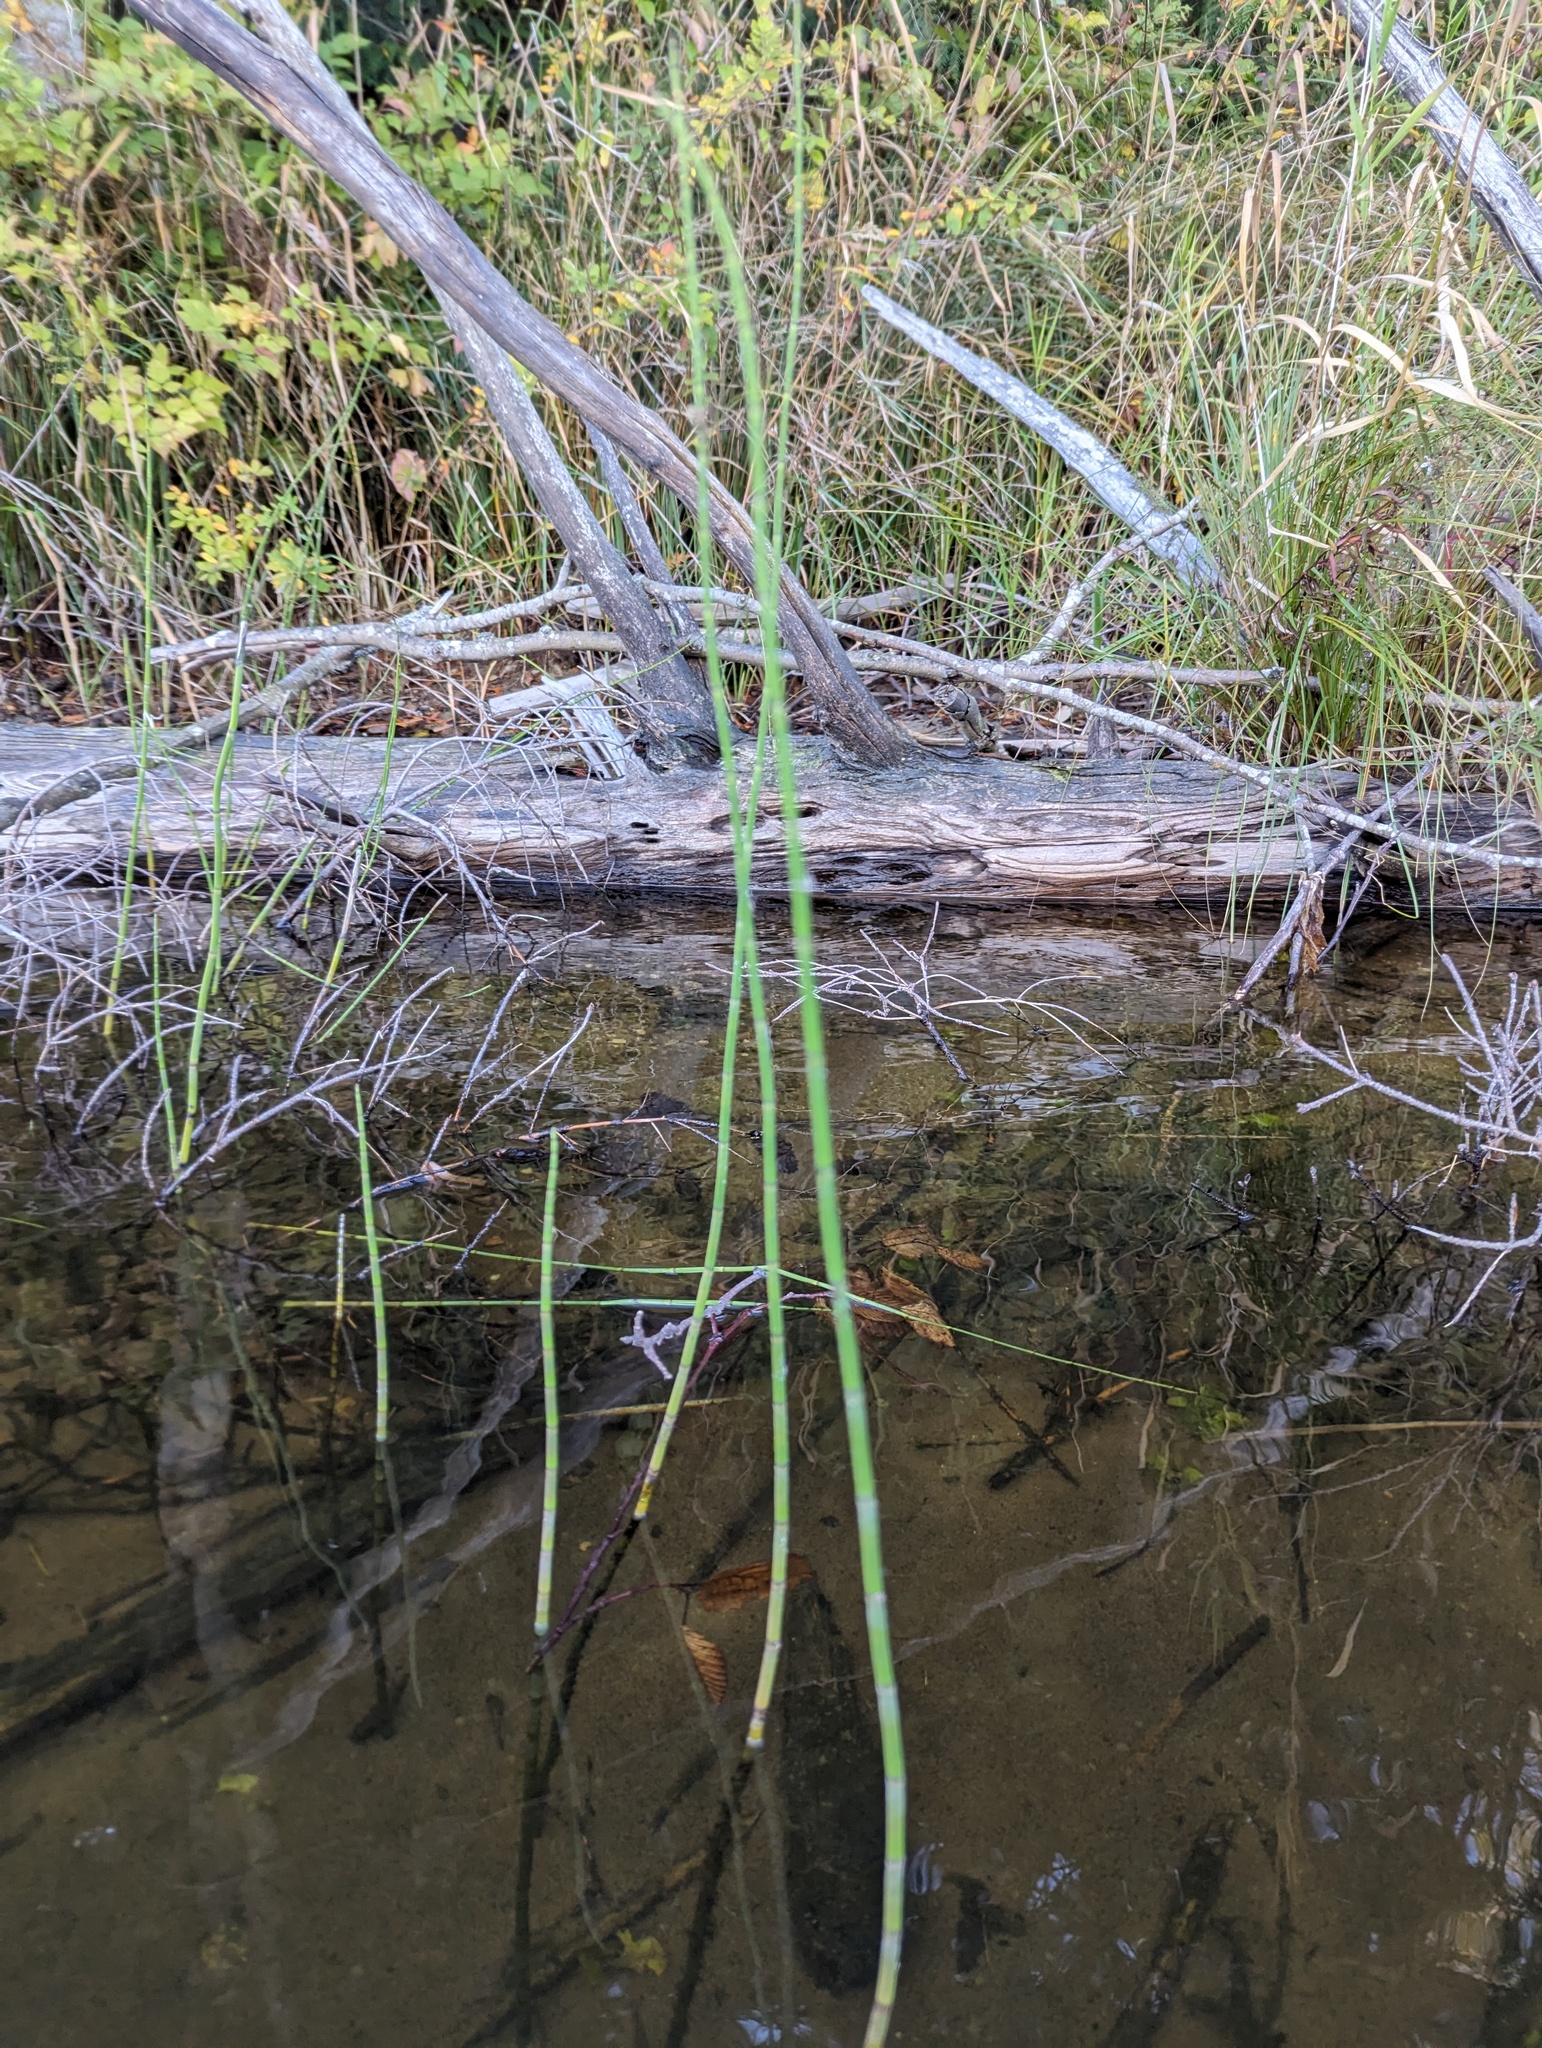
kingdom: Plantae
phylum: Tracheophyta
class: Polypodiopsida
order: Equisetales
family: Equisetaceae
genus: Equisetum
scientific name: Equisetum fluviatile
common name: Water horsetail
